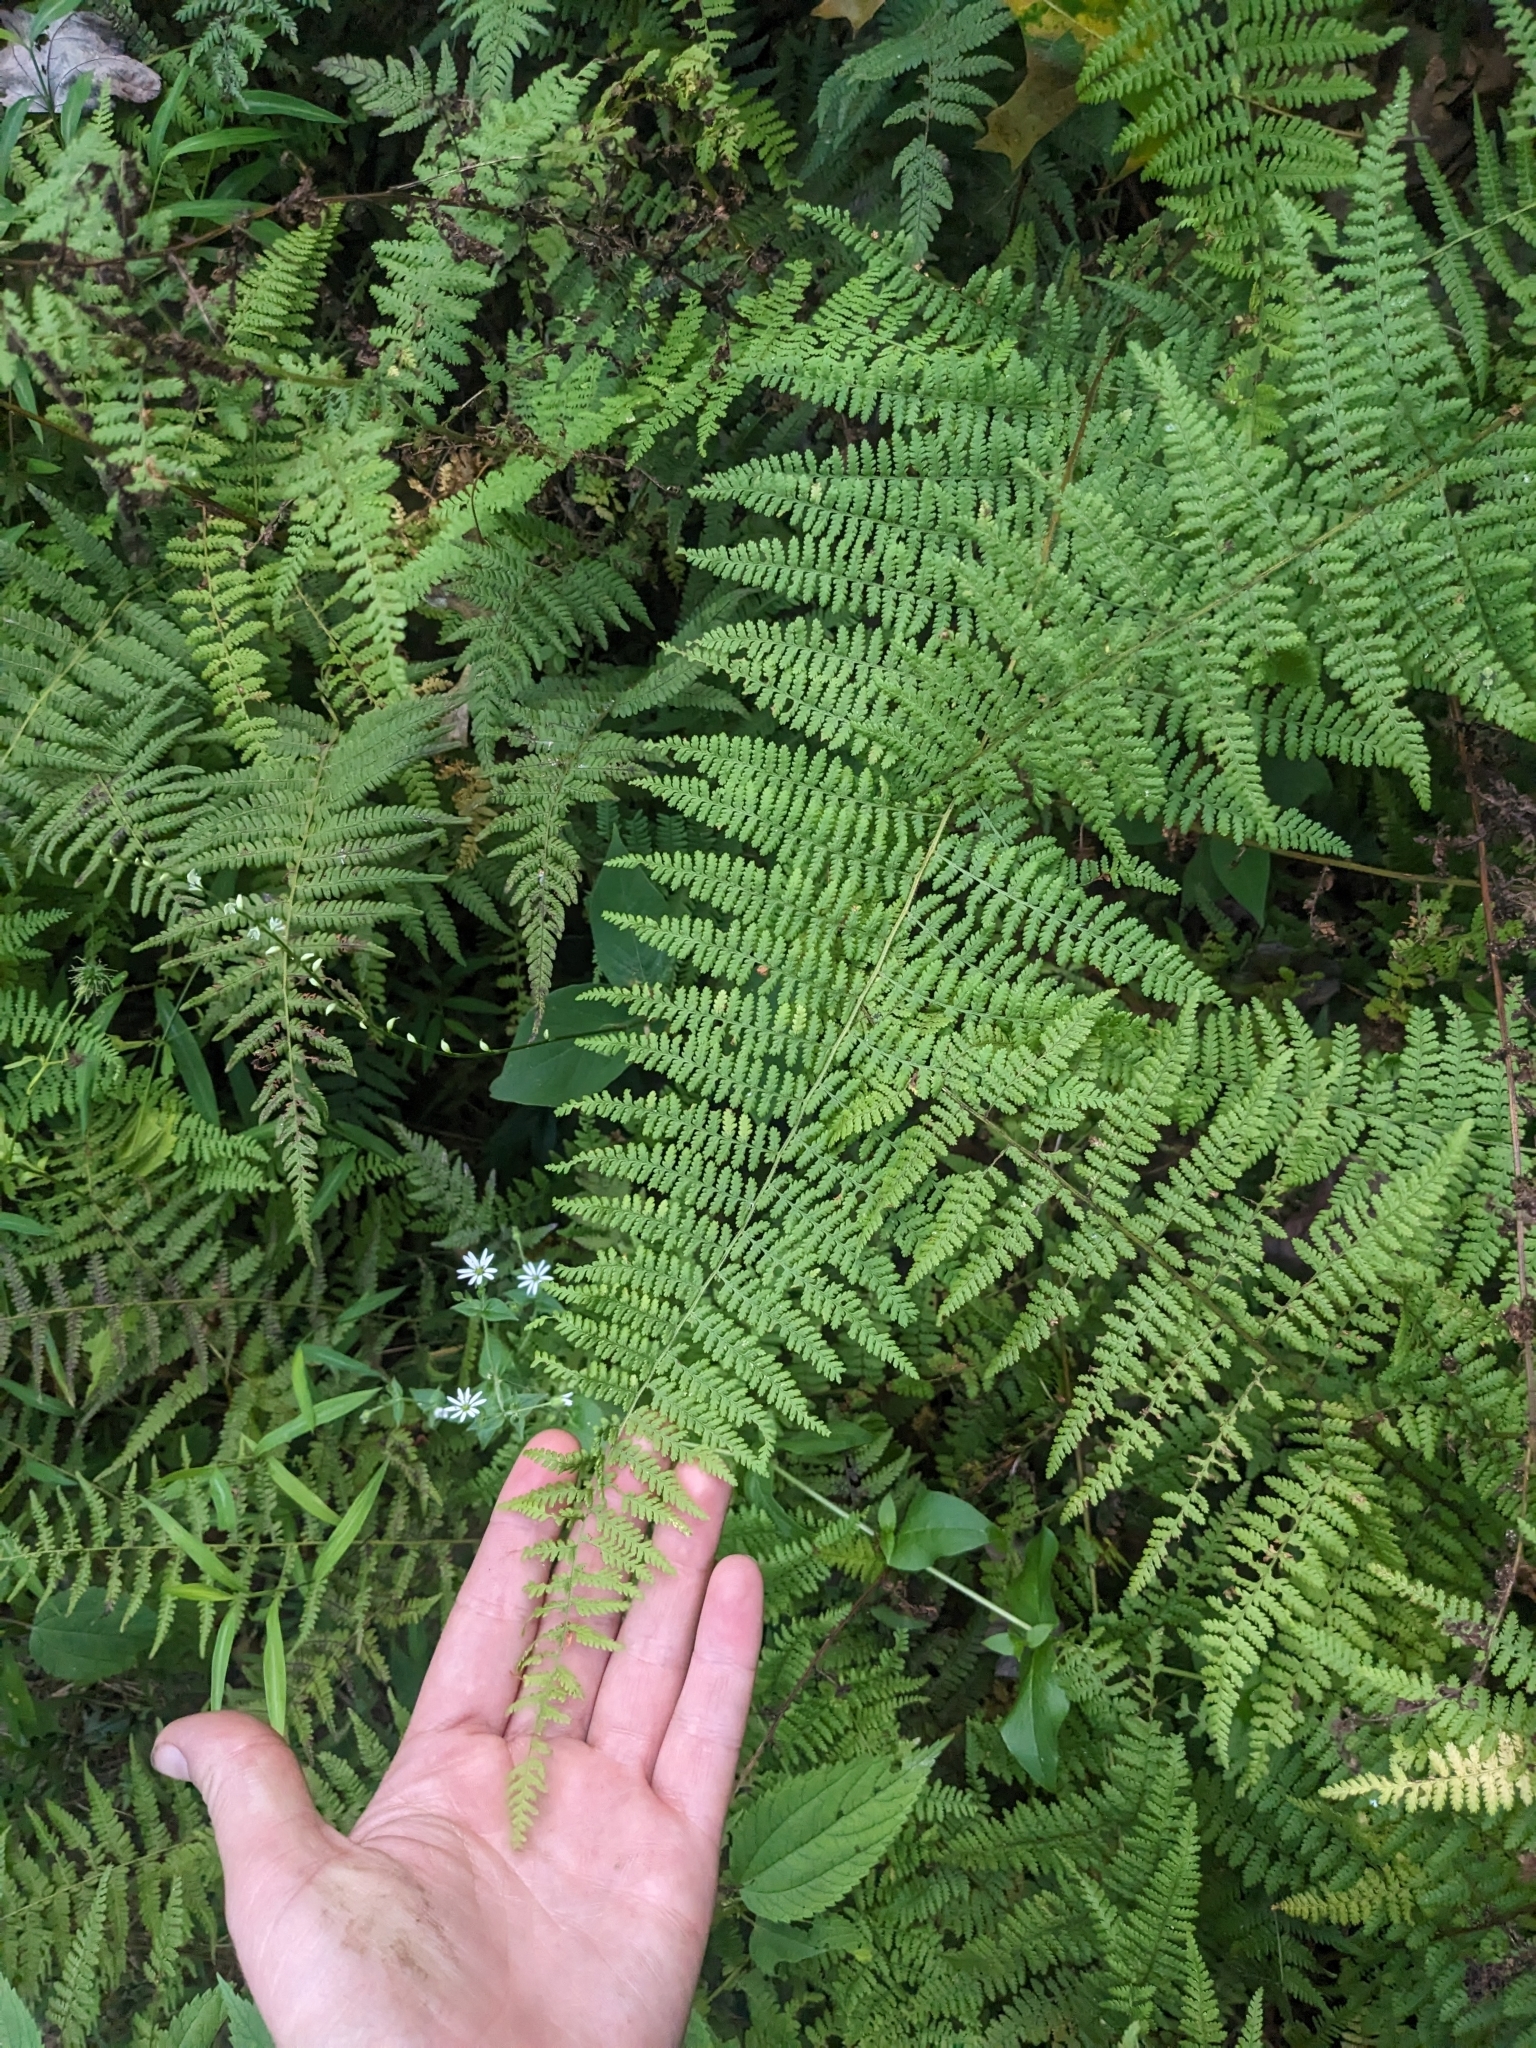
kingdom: Plantae
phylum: Tracheophyta
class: Polypodiopsida
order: Polypodiales
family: Dennstaedtiaceae
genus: Sitobolium
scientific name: Sitobolium punctilobum
